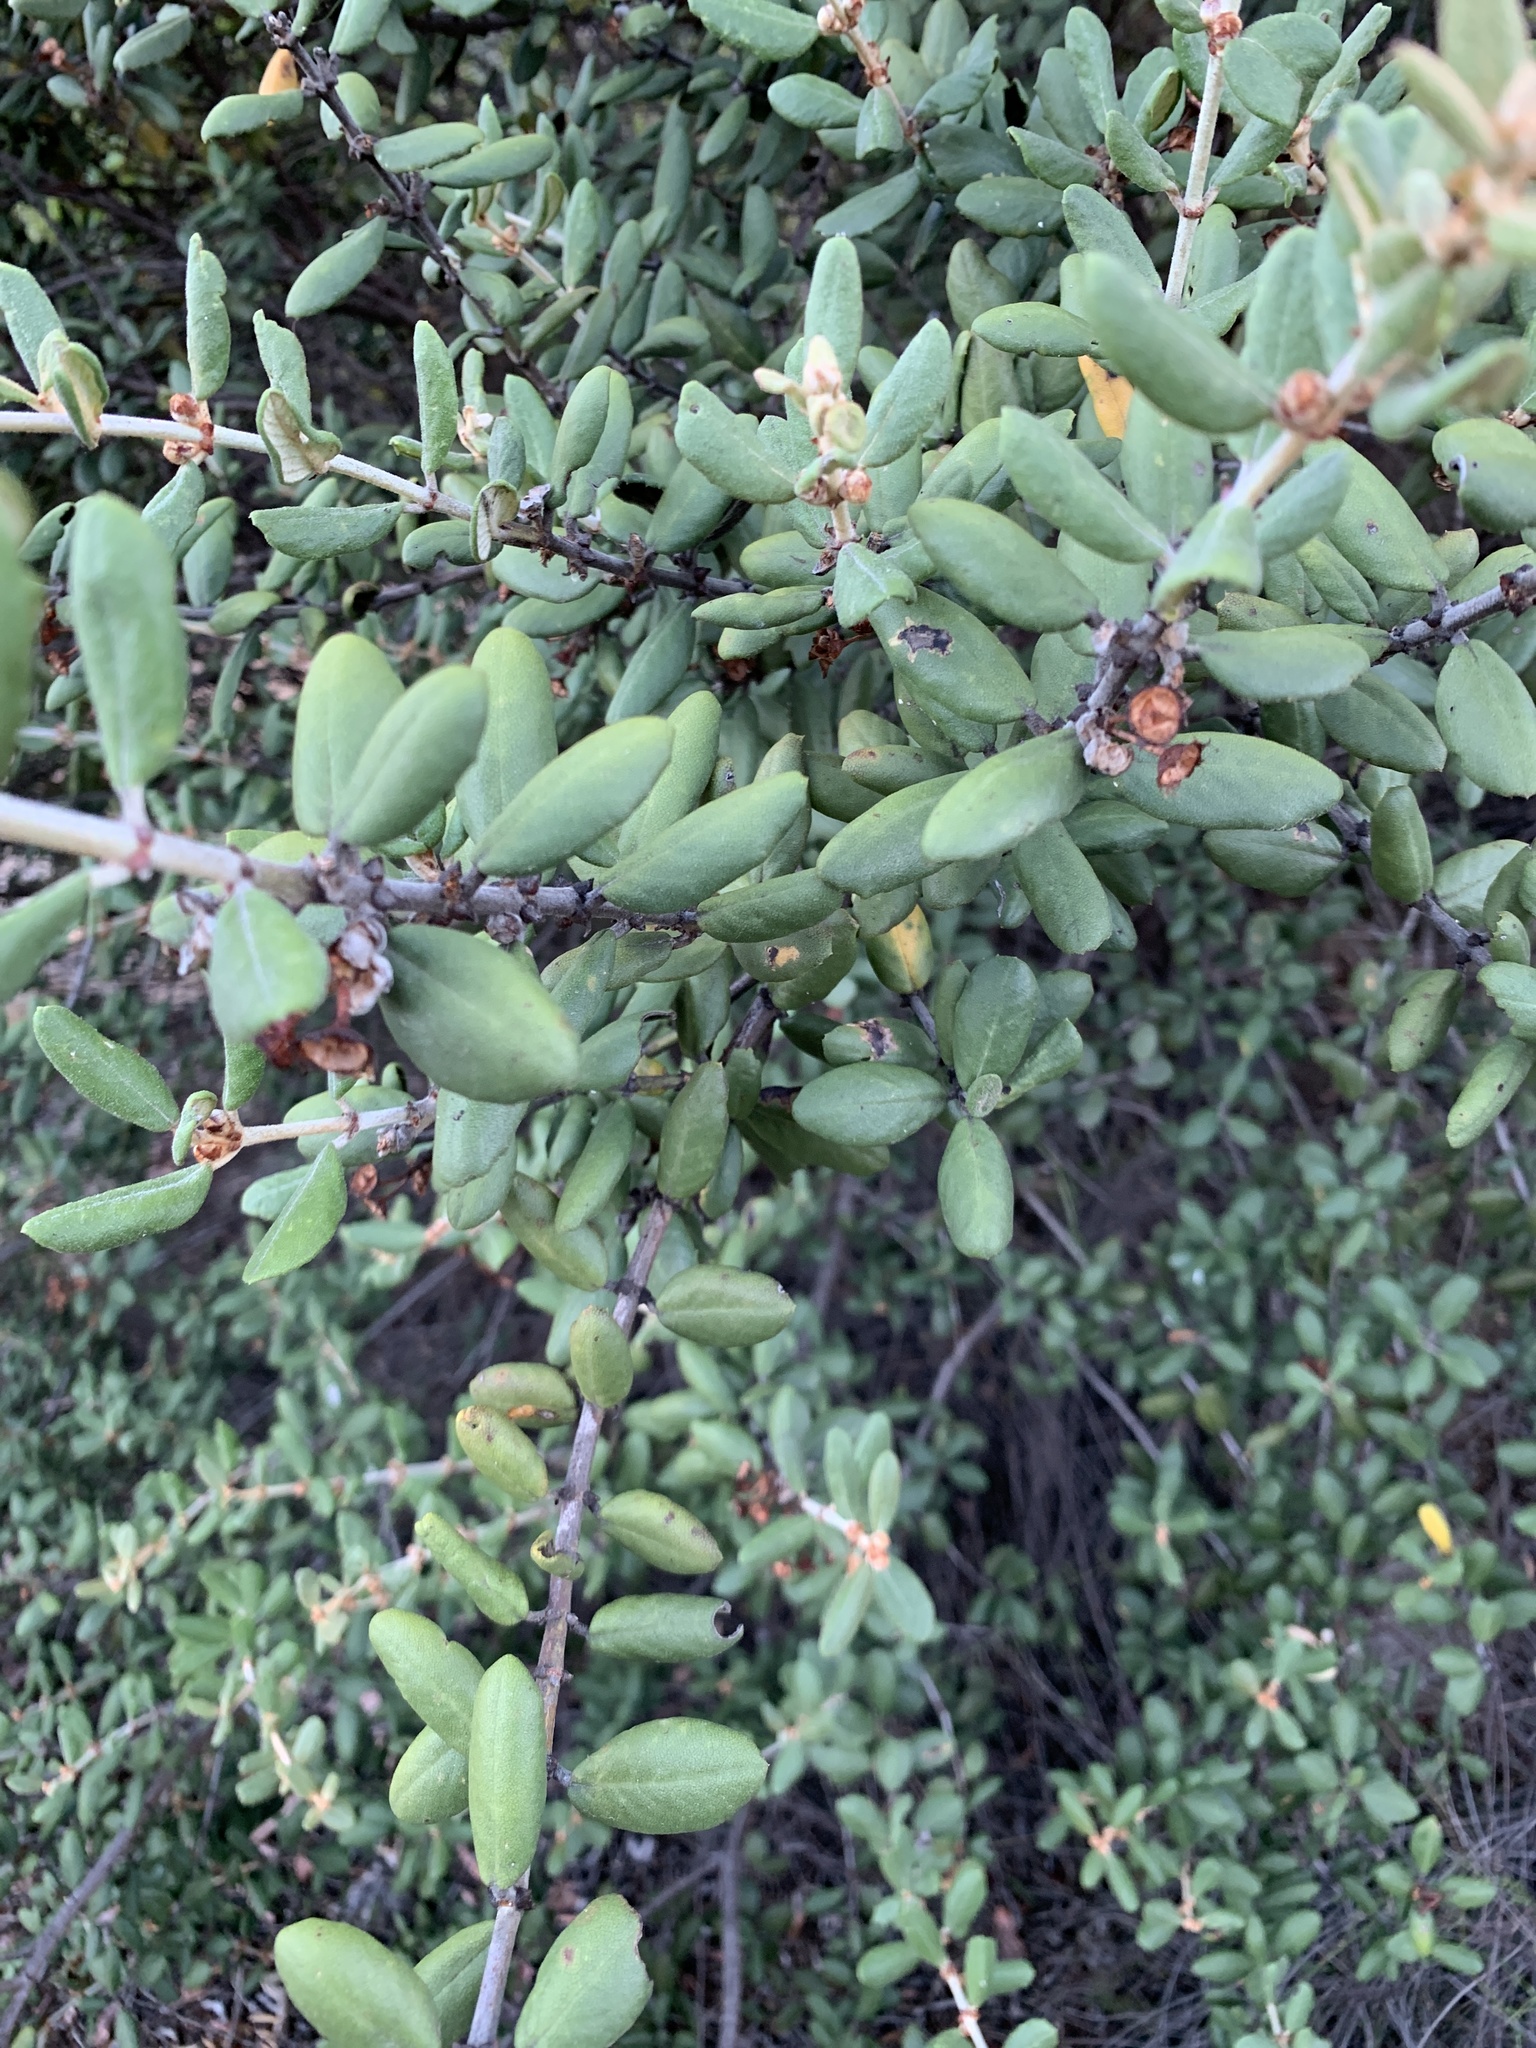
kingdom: Plantae
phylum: Tracheophyta
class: Magnoliopsida
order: Rosales
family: Rhamnaceae
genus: Ceanothus
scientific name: Ceanothus crassifolius
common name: Hoaryleaf ceanothus
